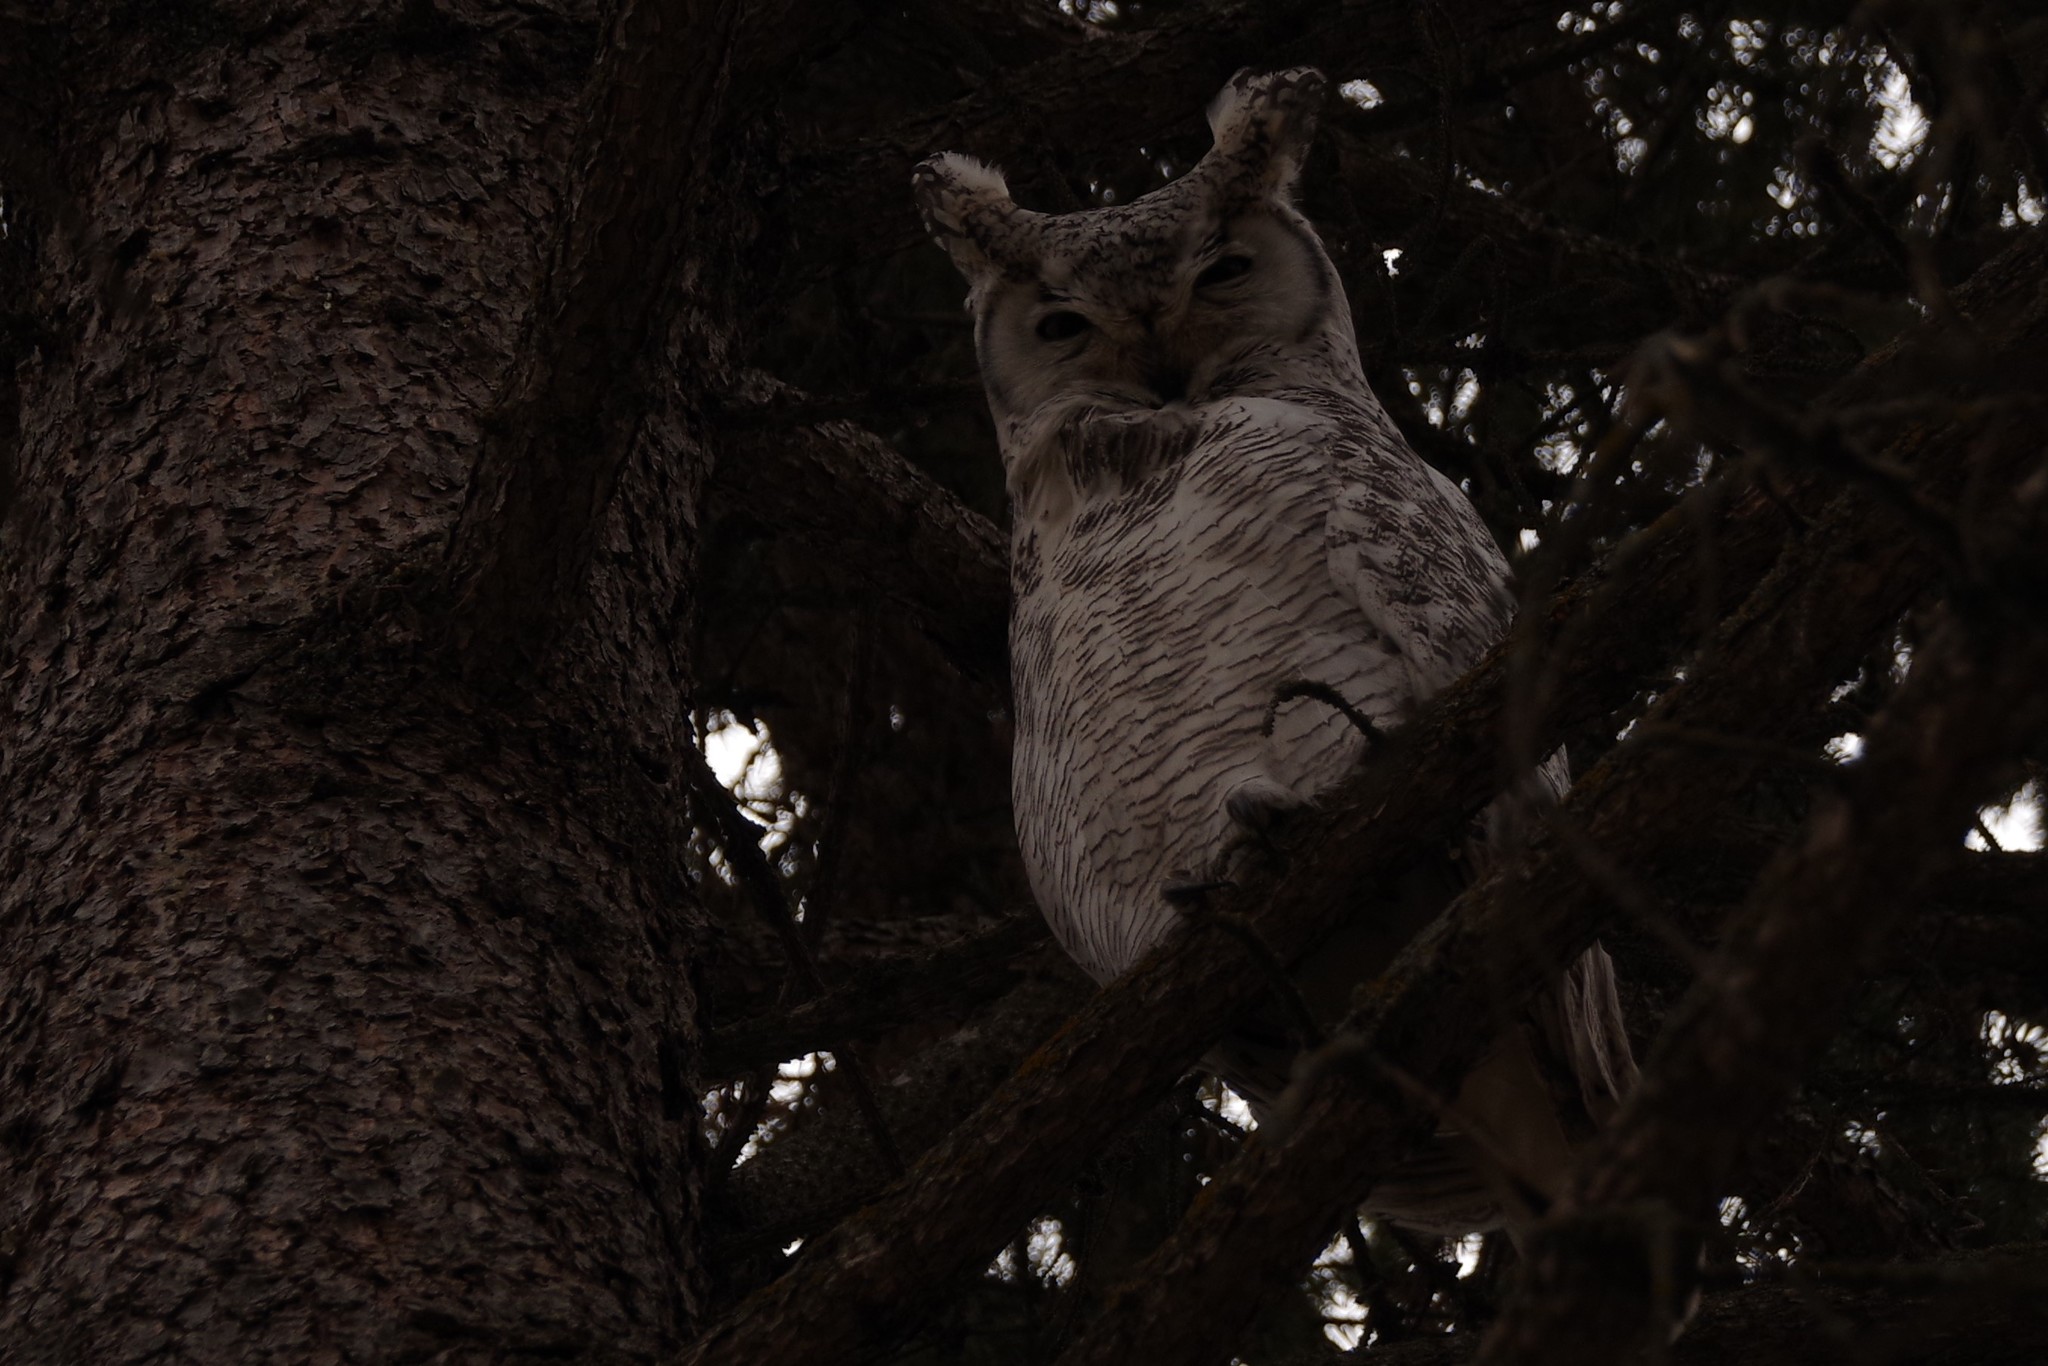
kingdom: Animalia
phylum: Chordata
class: Aves
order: Strigiformes
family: Strigidae
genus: Bubo
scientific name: Bubo virginianus
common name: Great horned owl
